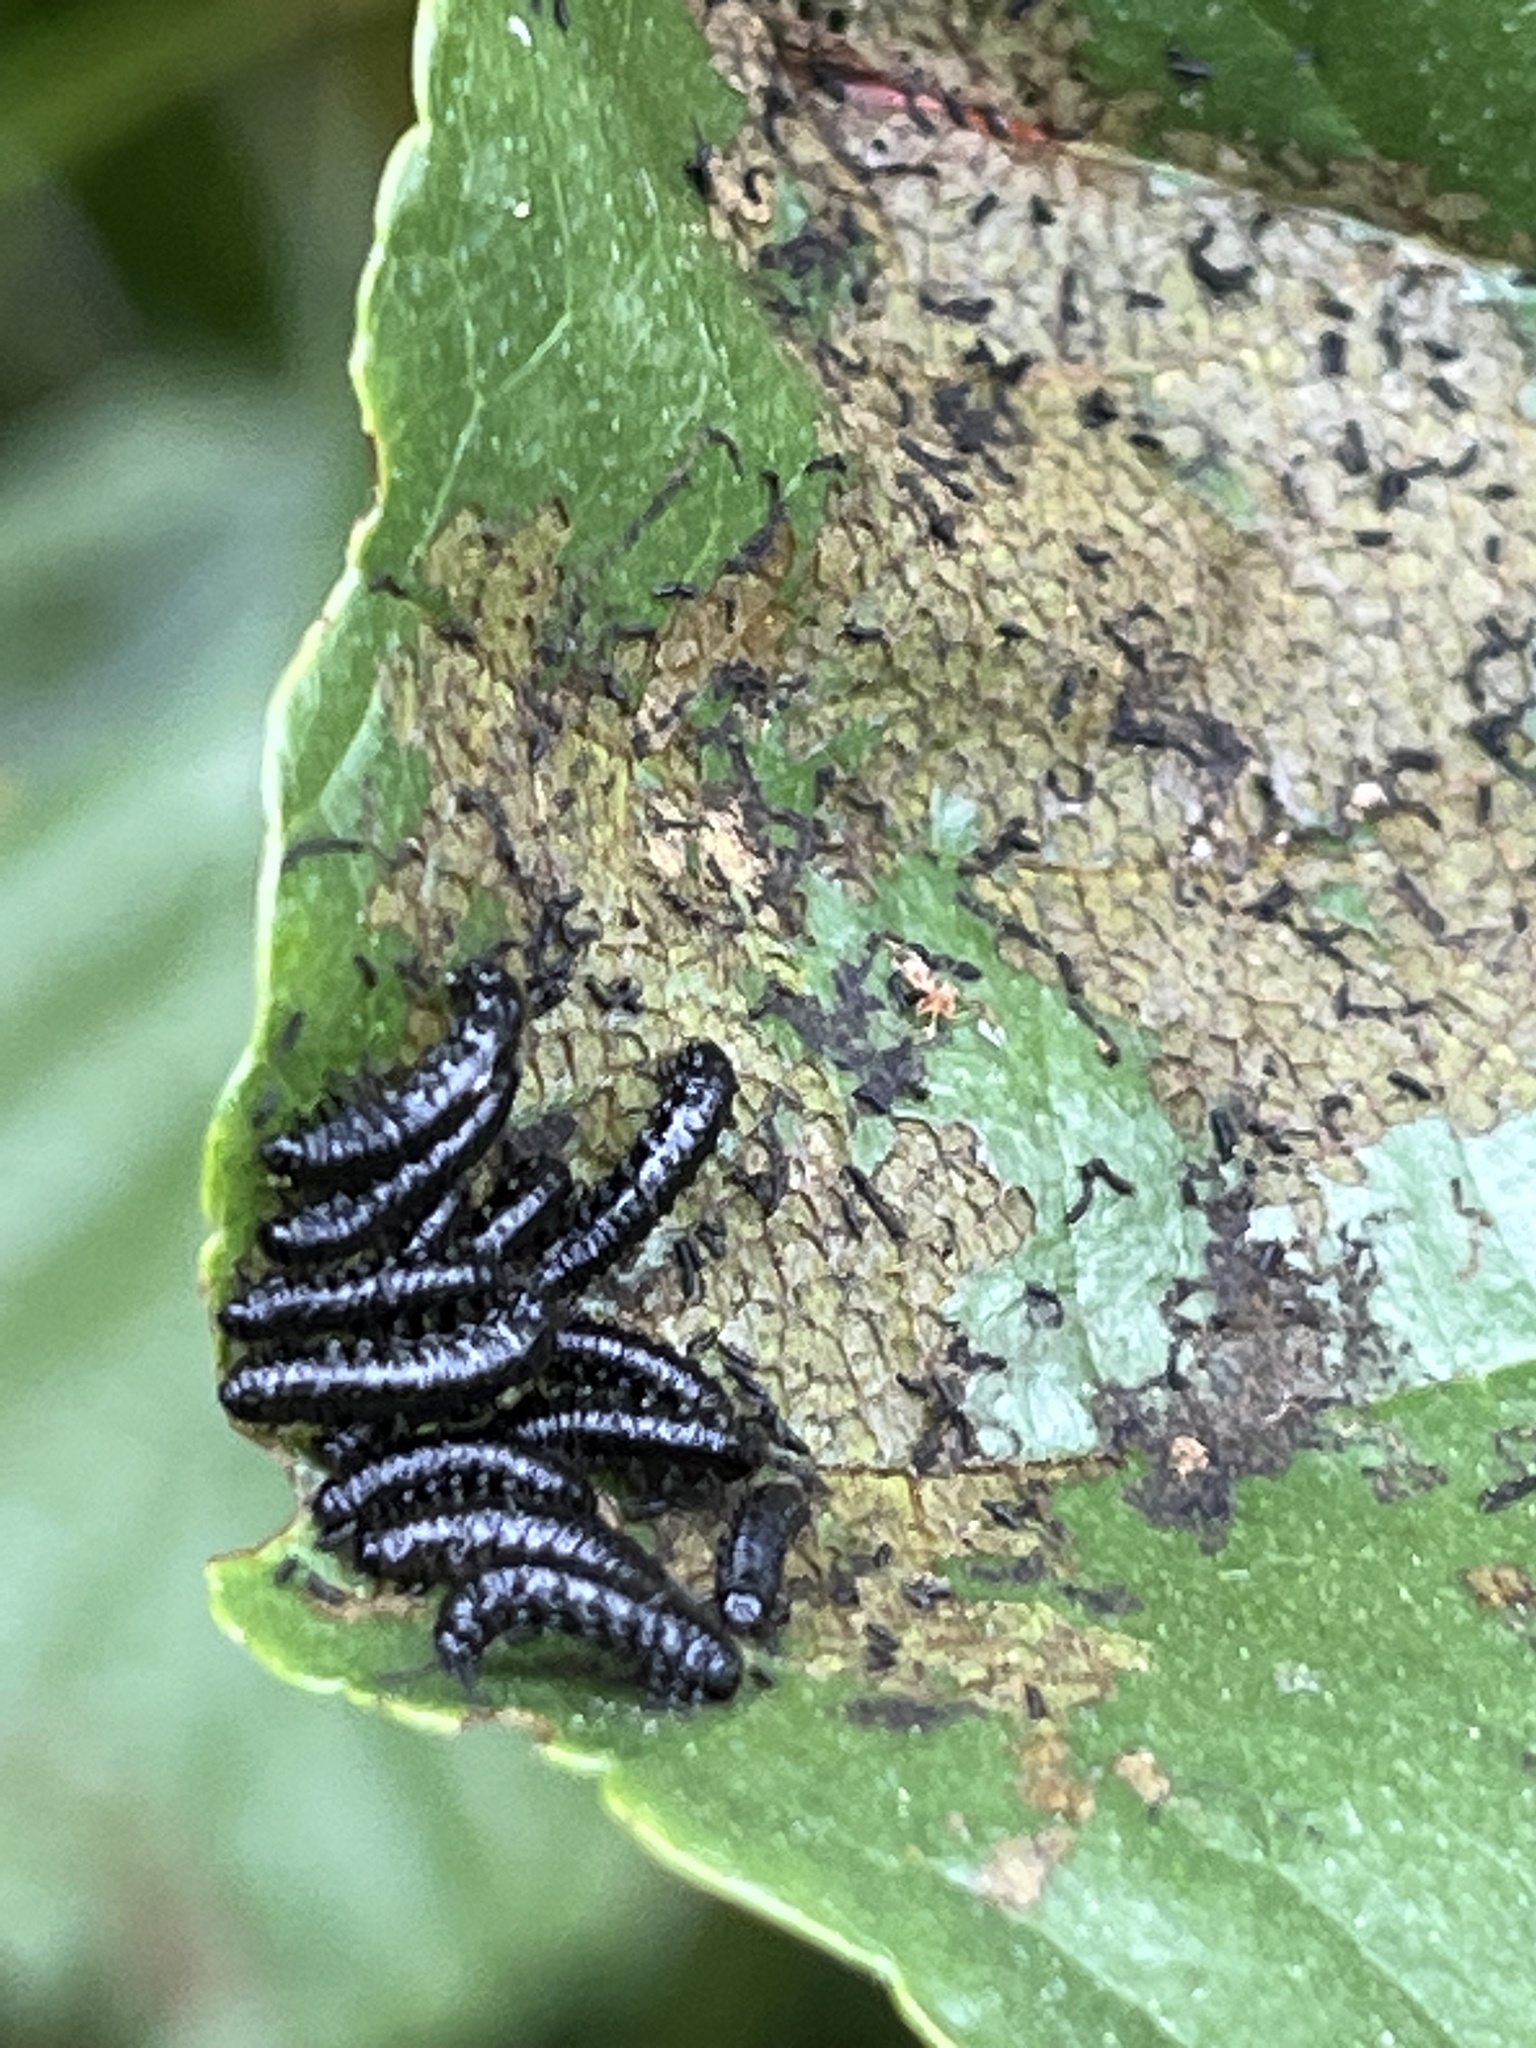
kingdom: Animalia
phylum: Arthropoda
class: Insecta
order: Coleoptera
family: Chrysomelidae
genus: Agelastica
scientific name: Agelastica alni
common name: Alder leaf beetle
